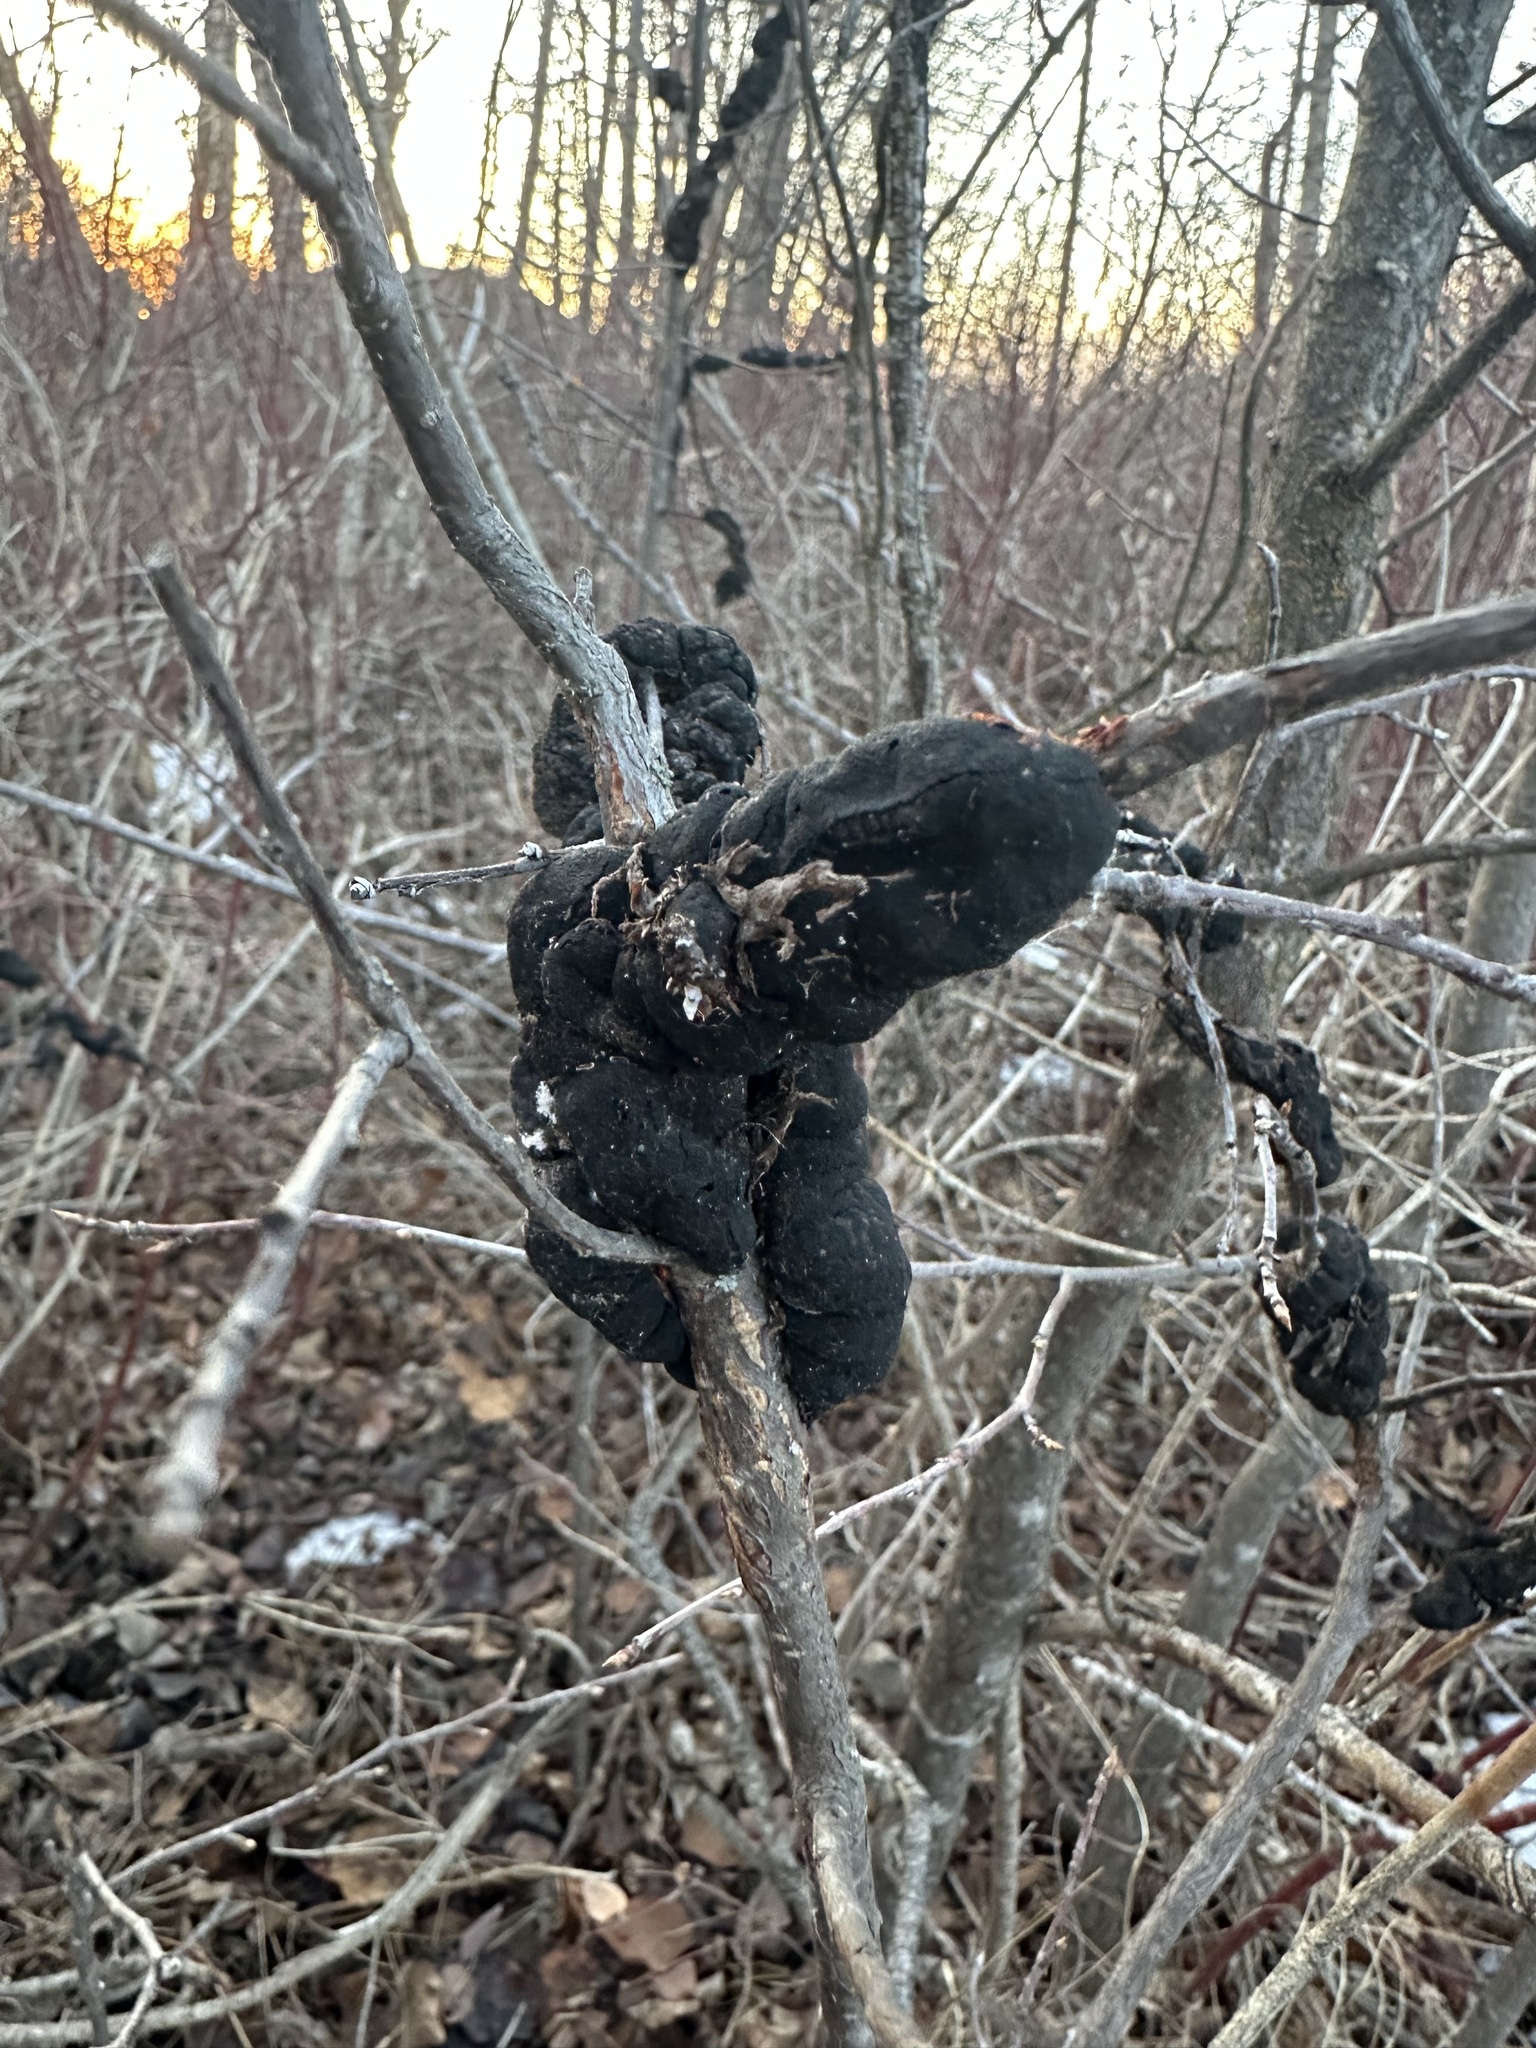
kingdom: Fungi
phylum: Ascomycota
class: Dothideomycetes
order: Venturiales
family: Venturiaceae
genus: Apiosporina
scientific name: Apiosporina morbosa
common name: Black knot
